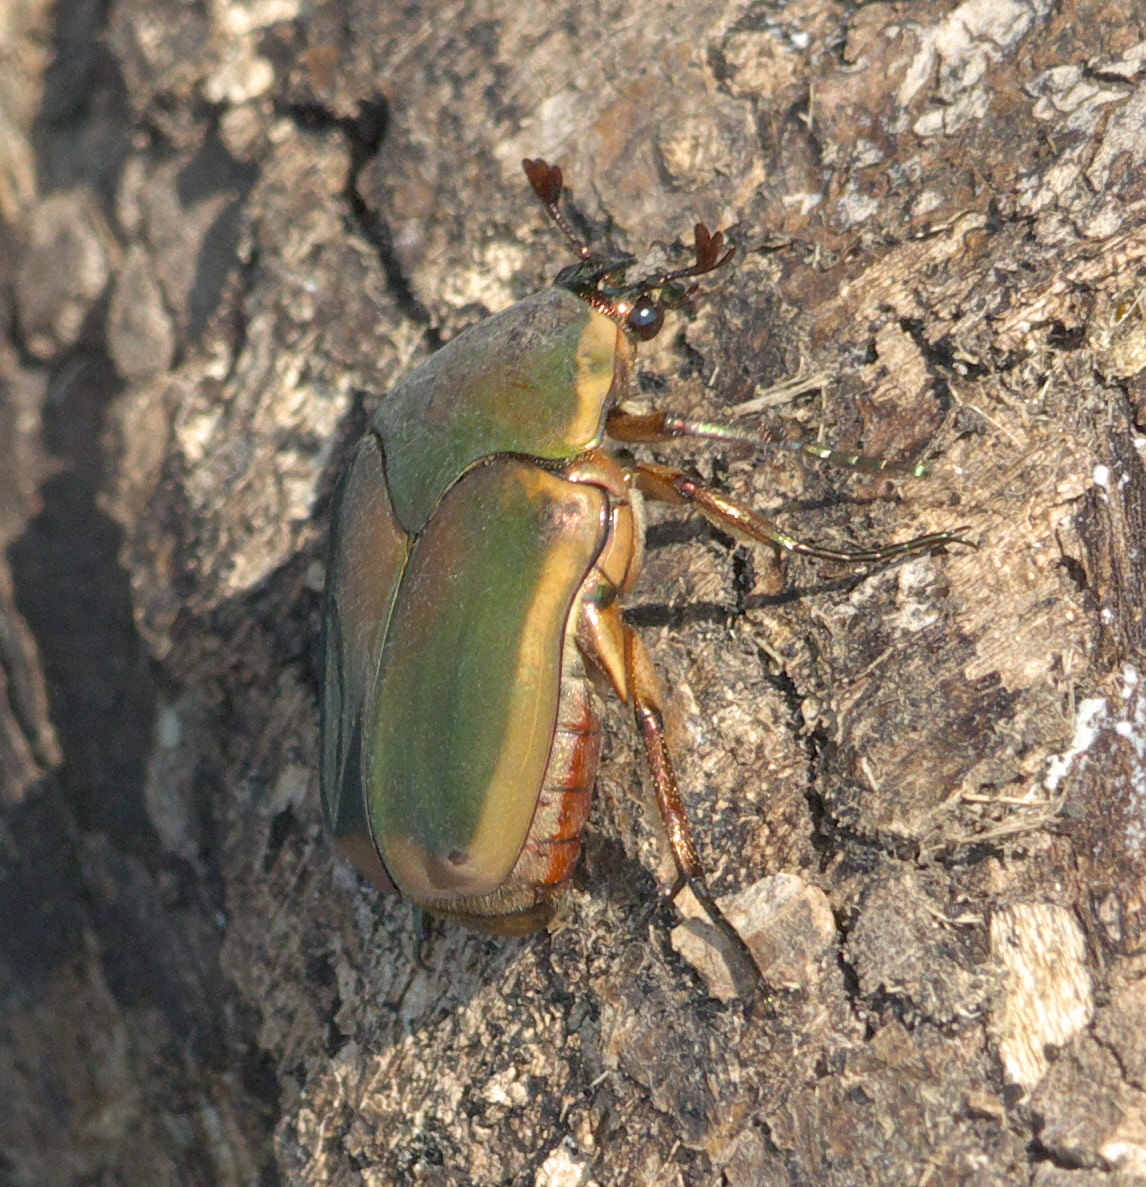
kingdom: Animalia
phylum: Arthropoda
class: Insecta
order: Coleoptera
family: Scarabaeidae
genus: Cotinis
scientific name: Cotinis nitida
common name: Common green june beetle
